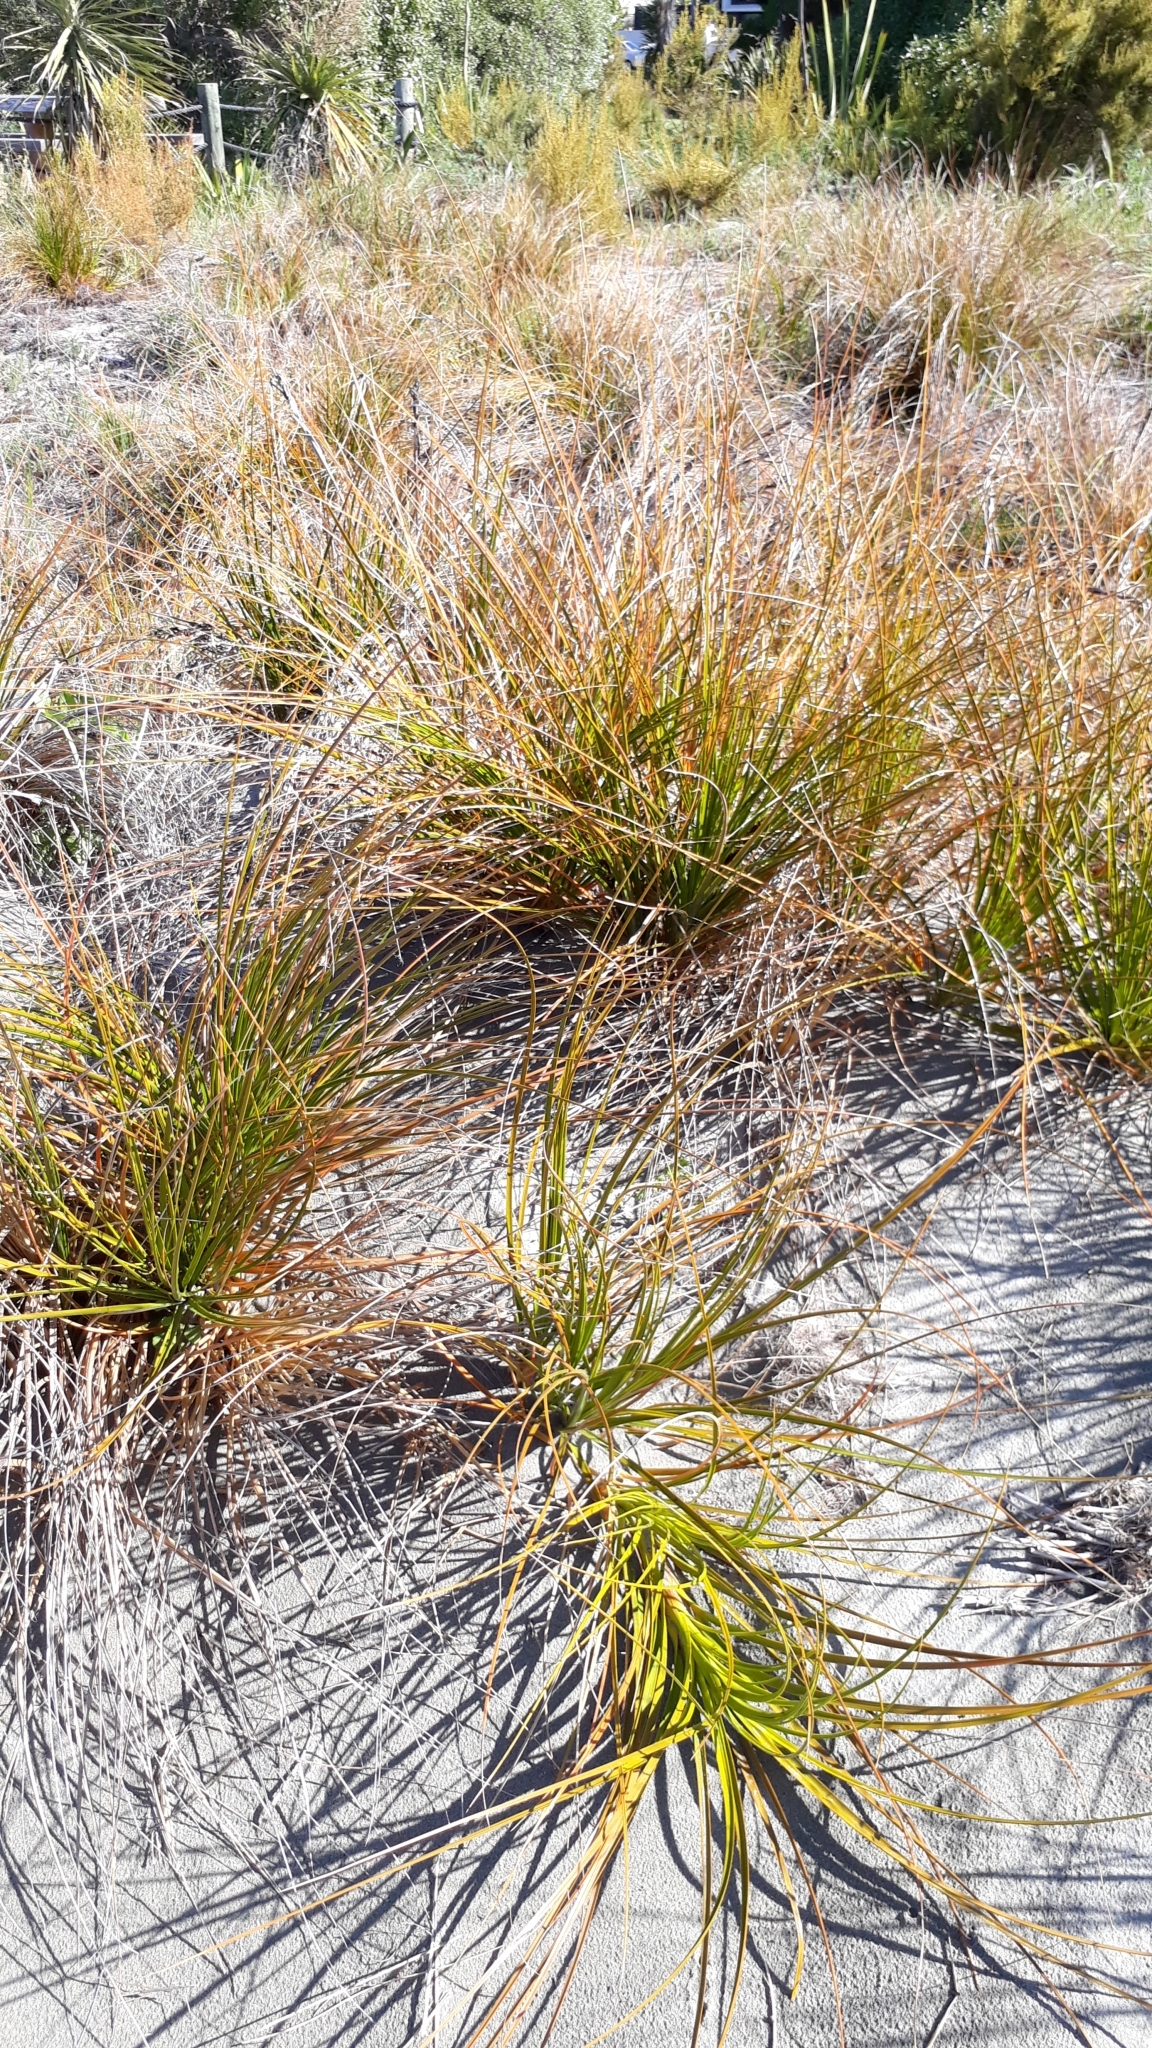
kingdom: Plantae
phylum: Tracheophyta
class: Liliopsida
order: Poales
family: Cyperaceae
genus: Ficinia
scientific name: Ficinia spiralis
